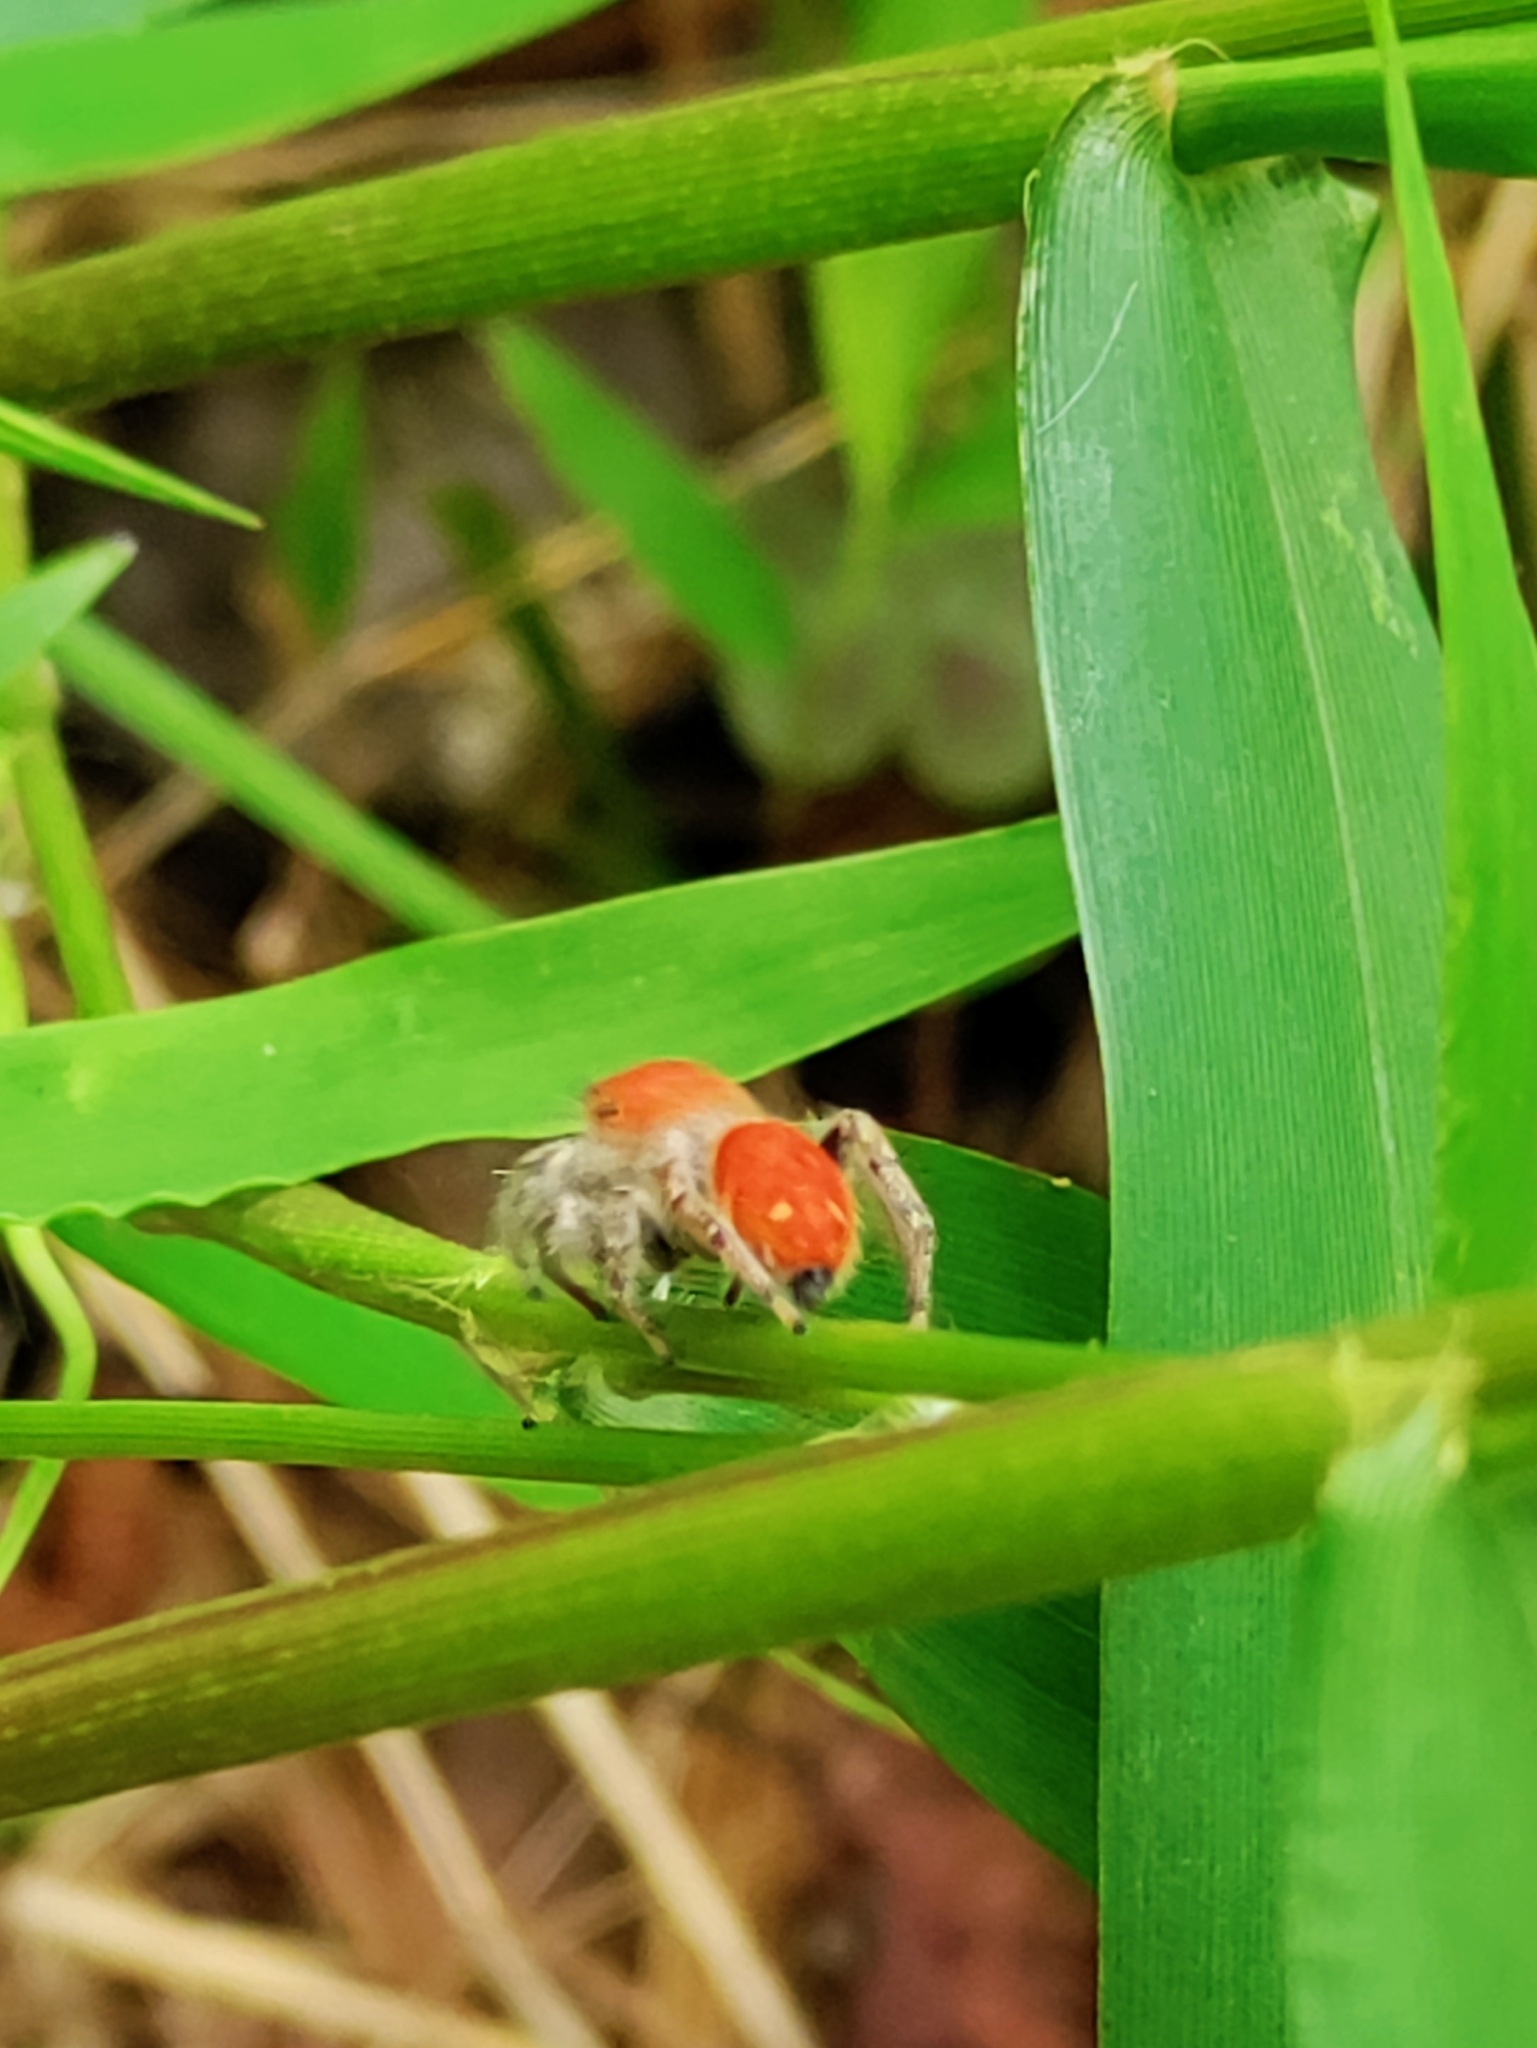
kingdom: Animalia
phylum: Arthropoda
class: Arachnida
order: Araneae
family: Salticidae
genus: Phidippus
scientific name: Phidippus whitmani
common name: Whitman's jumping spider
